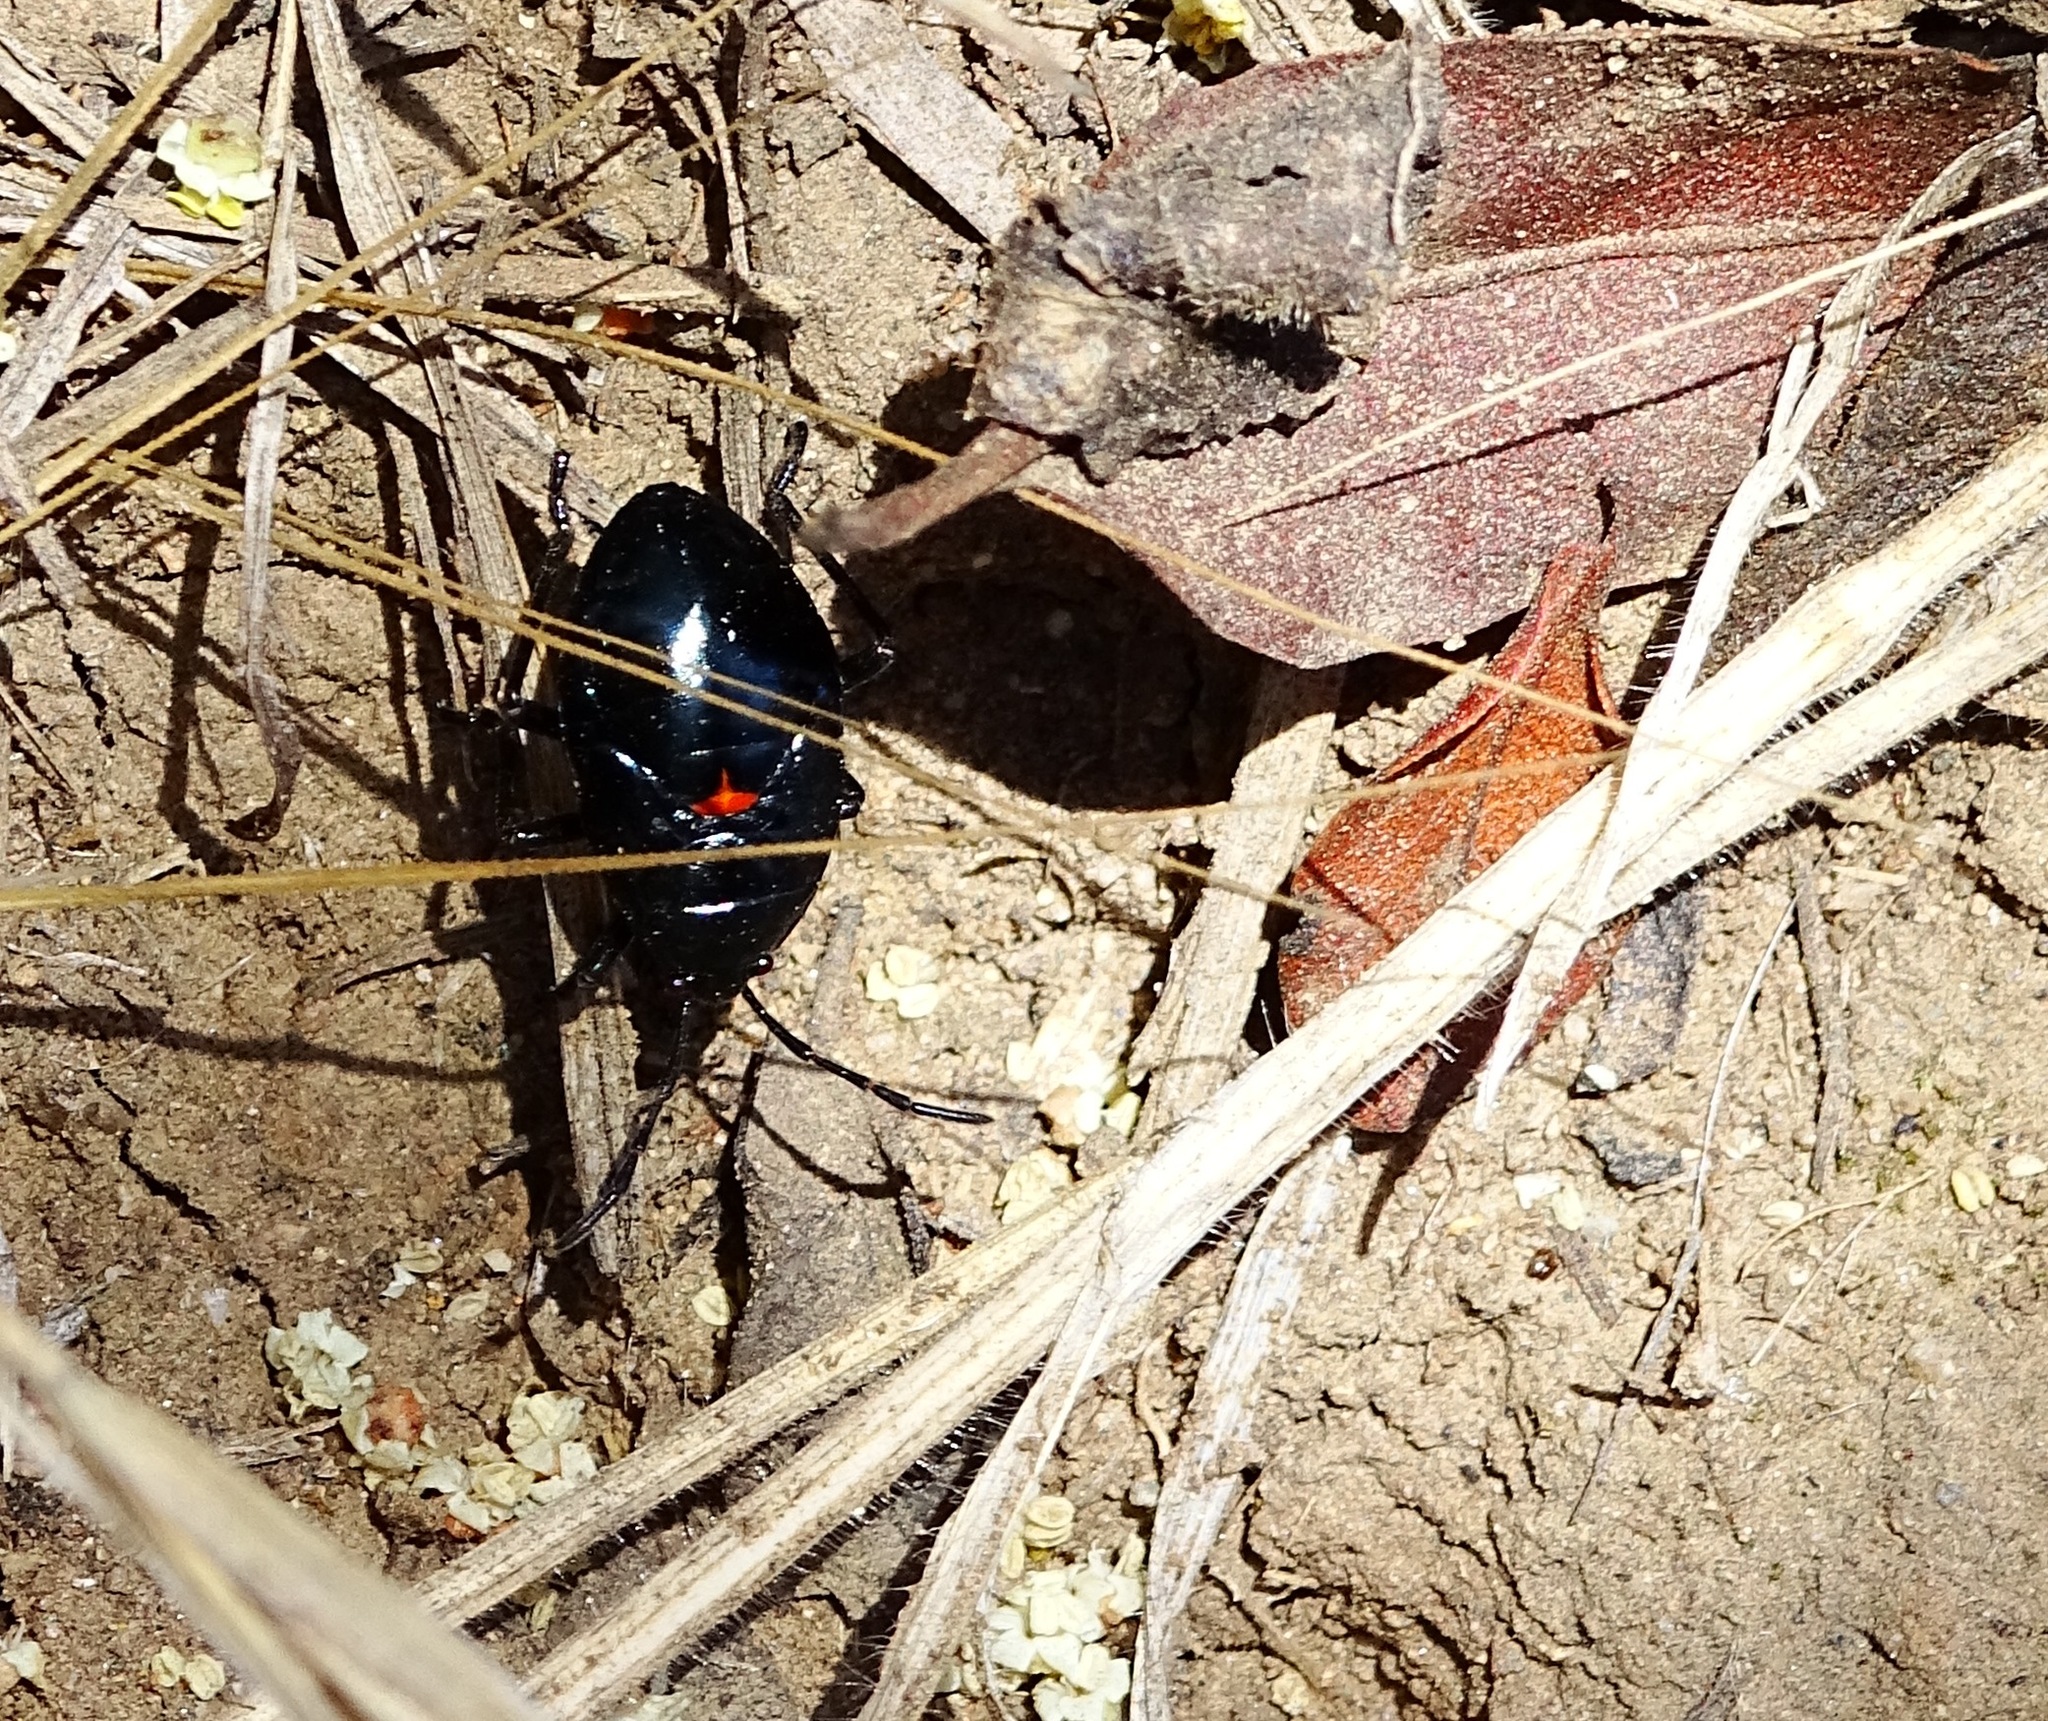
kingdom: Animalia
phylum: Arthropoda
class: Insecta
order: Hemiptera
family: Largidae
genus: Largus
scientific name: Largus californicus
